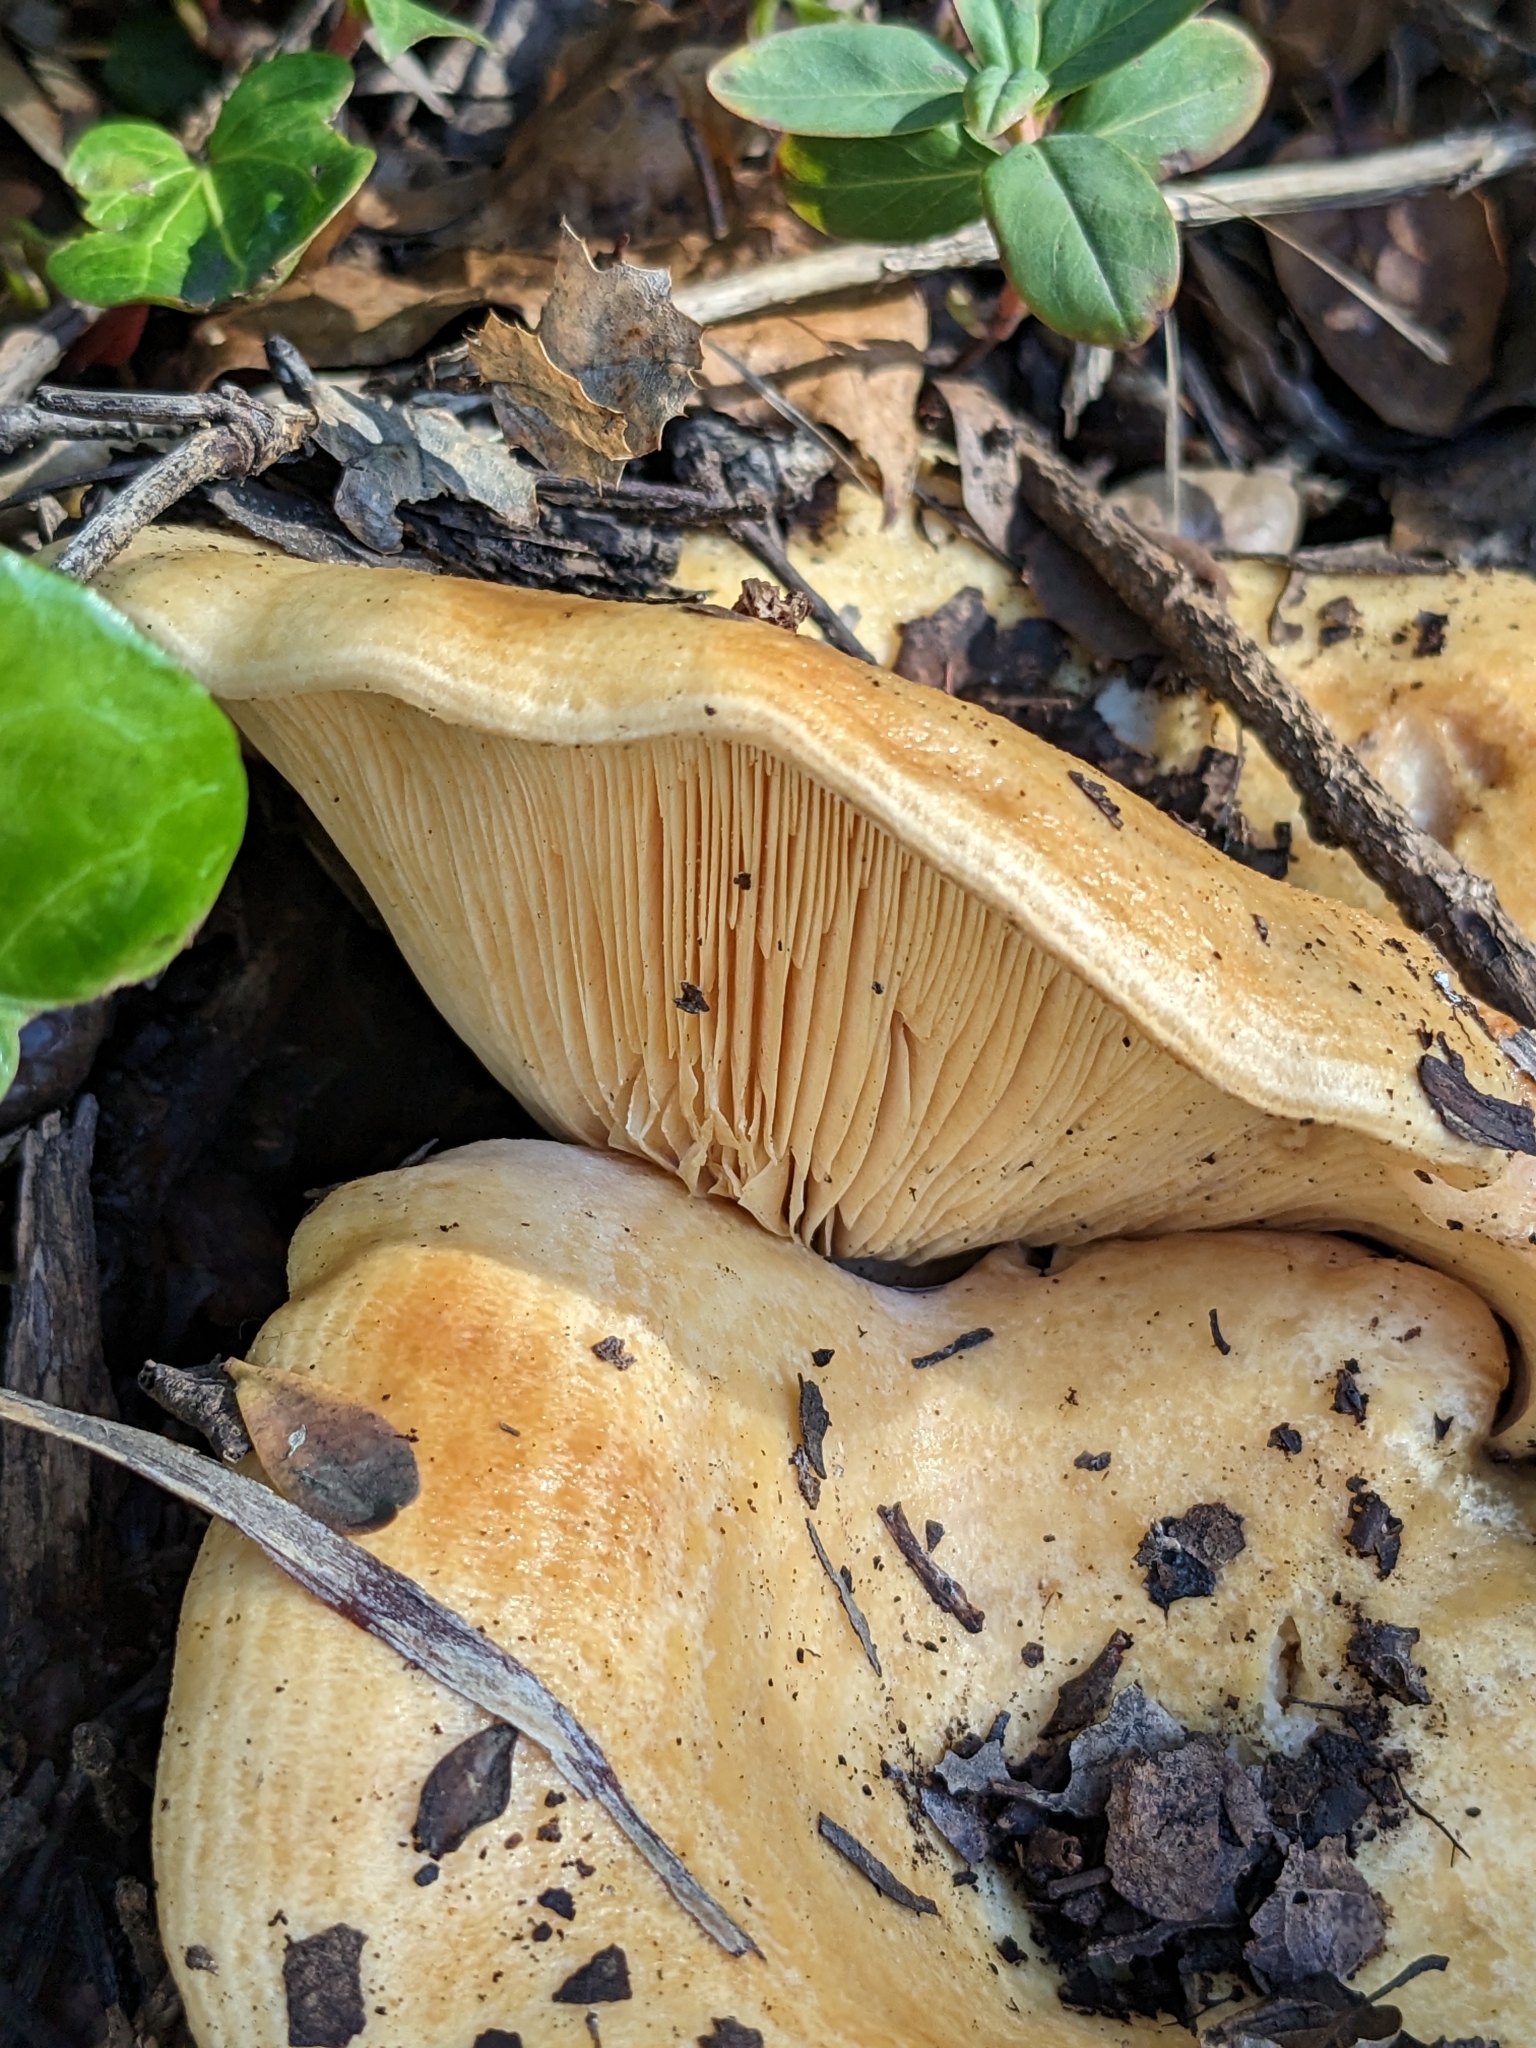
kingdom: Fungi
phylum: Basidiomycota
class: Agaricomycetes
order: Russulales
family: Russulaceae
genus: Lactarius
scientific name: Lactarius alnicola
